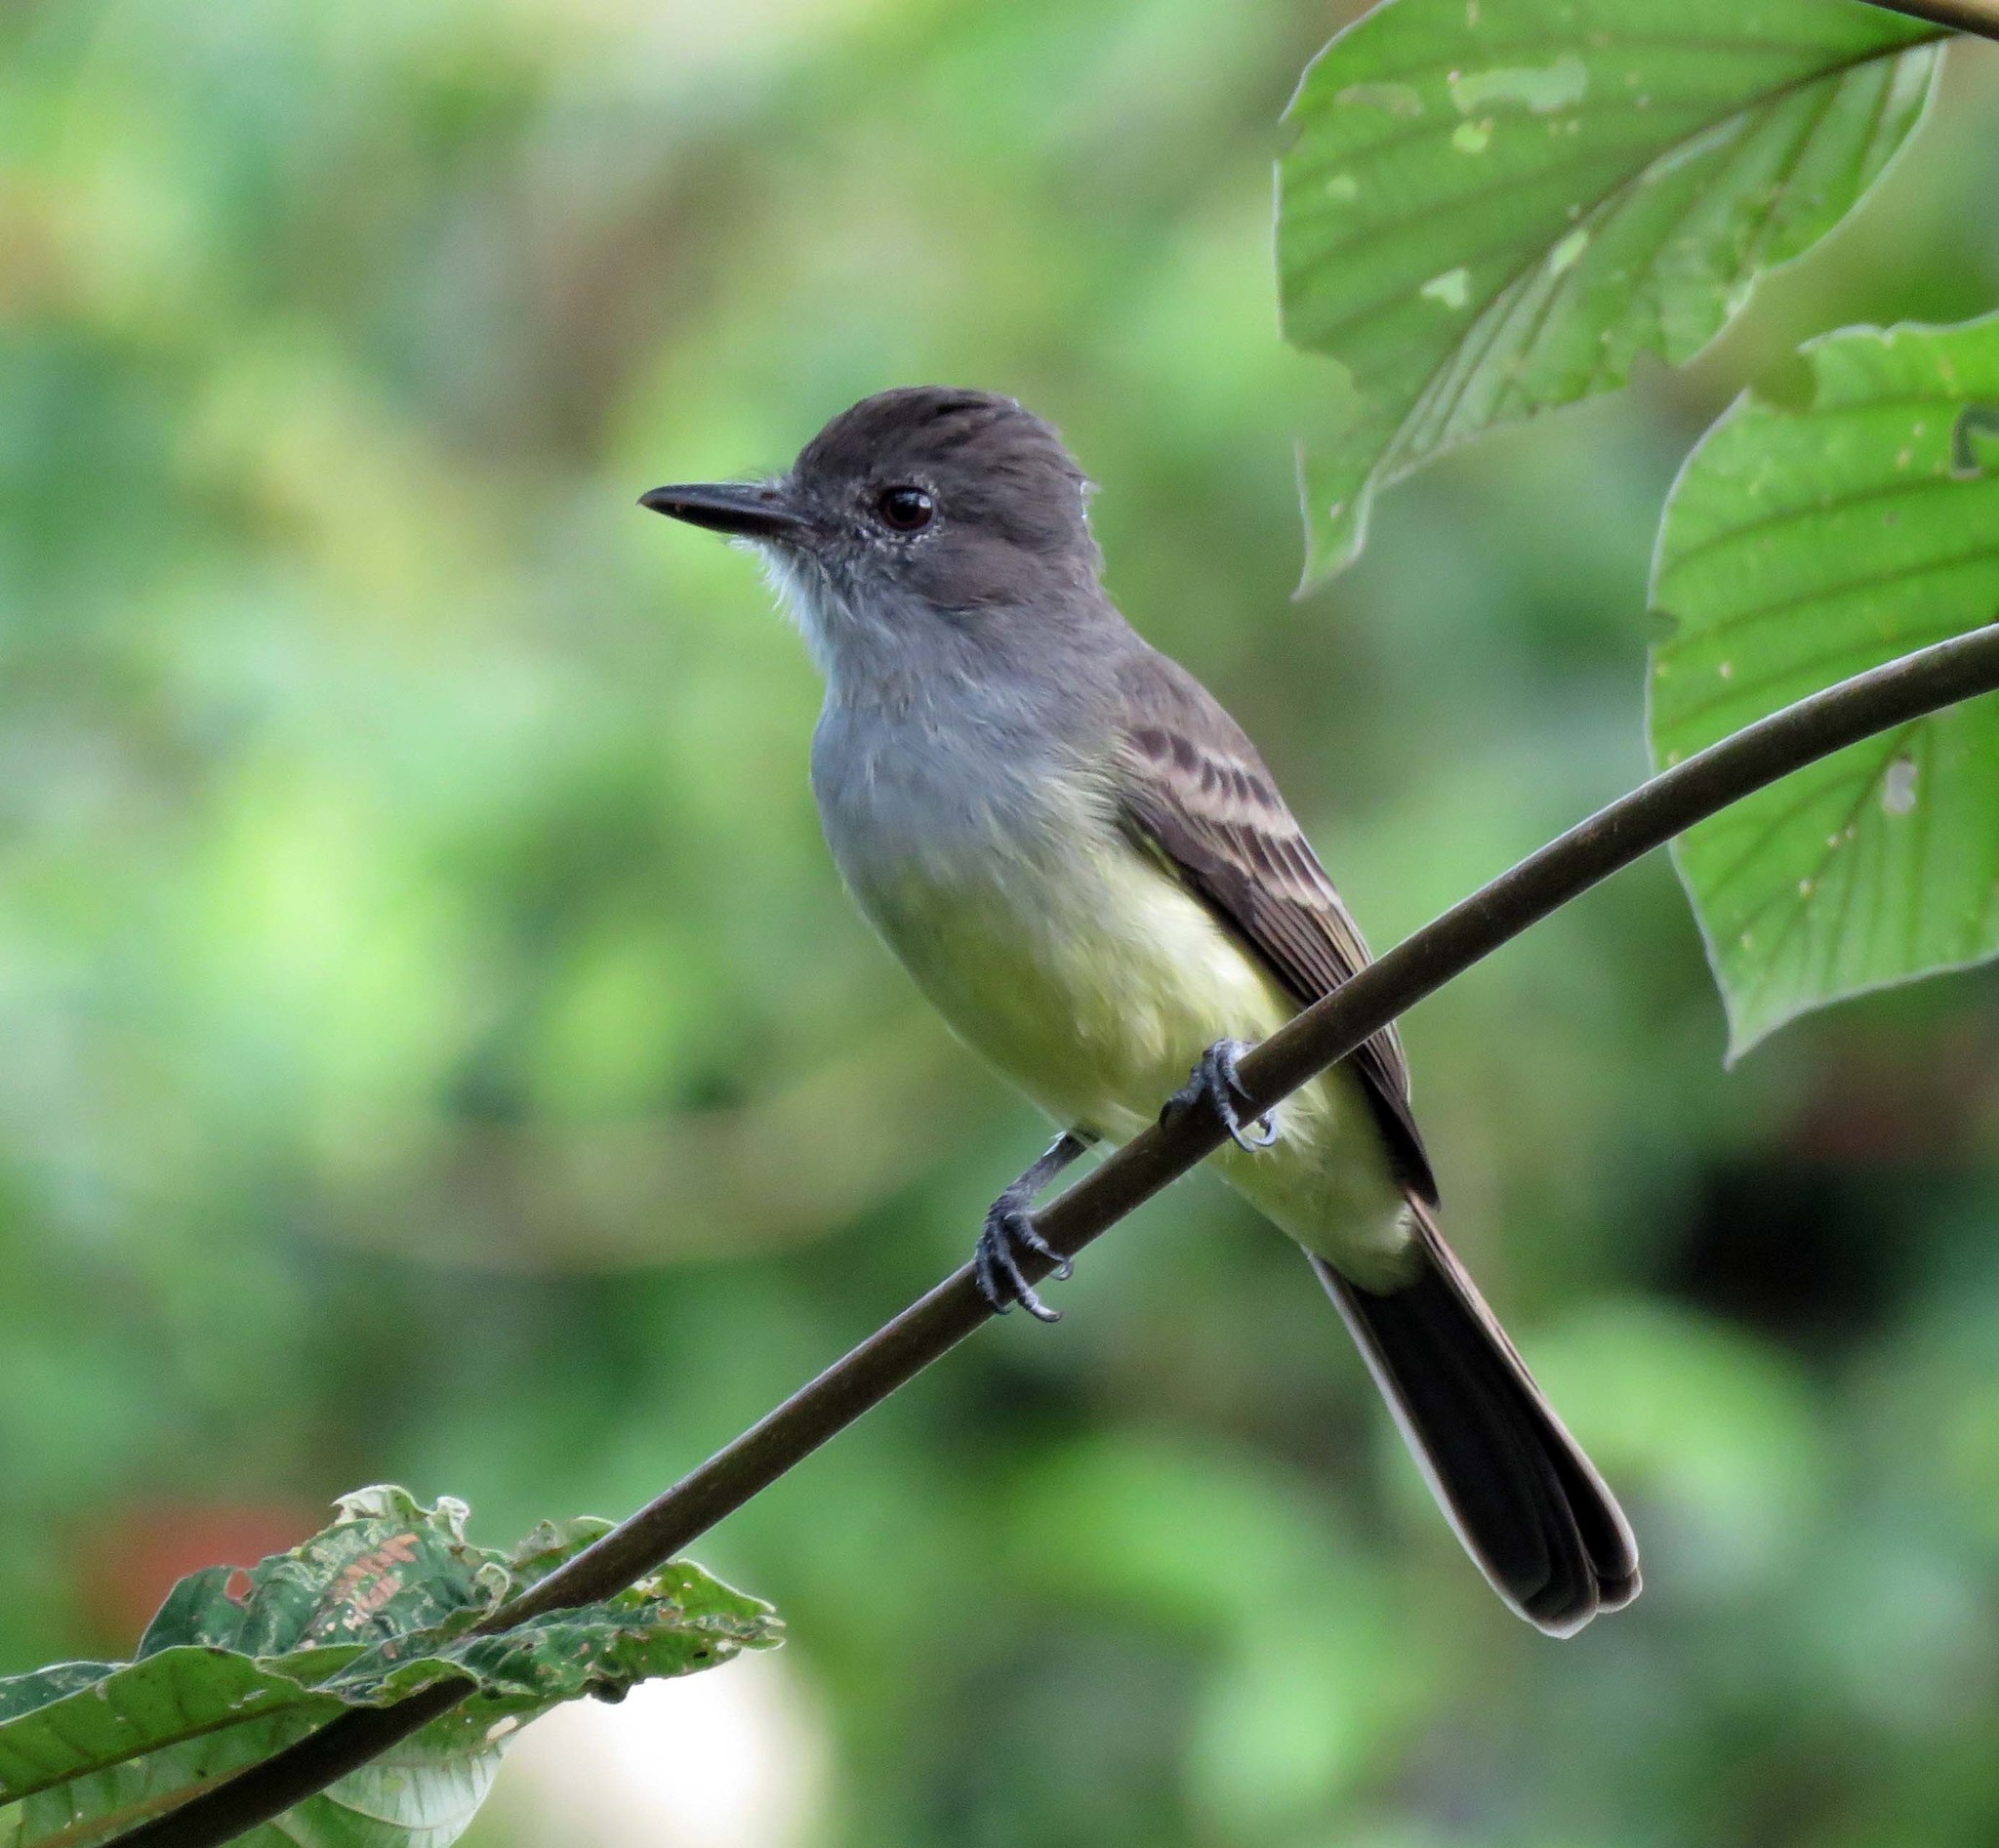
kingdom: Animalia
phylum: Chordata
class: Aves
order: Passeriformes
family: Tyrannidae
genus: Myiarchus
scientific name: Myiarchus ferox
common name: Short-crested flycatcher
